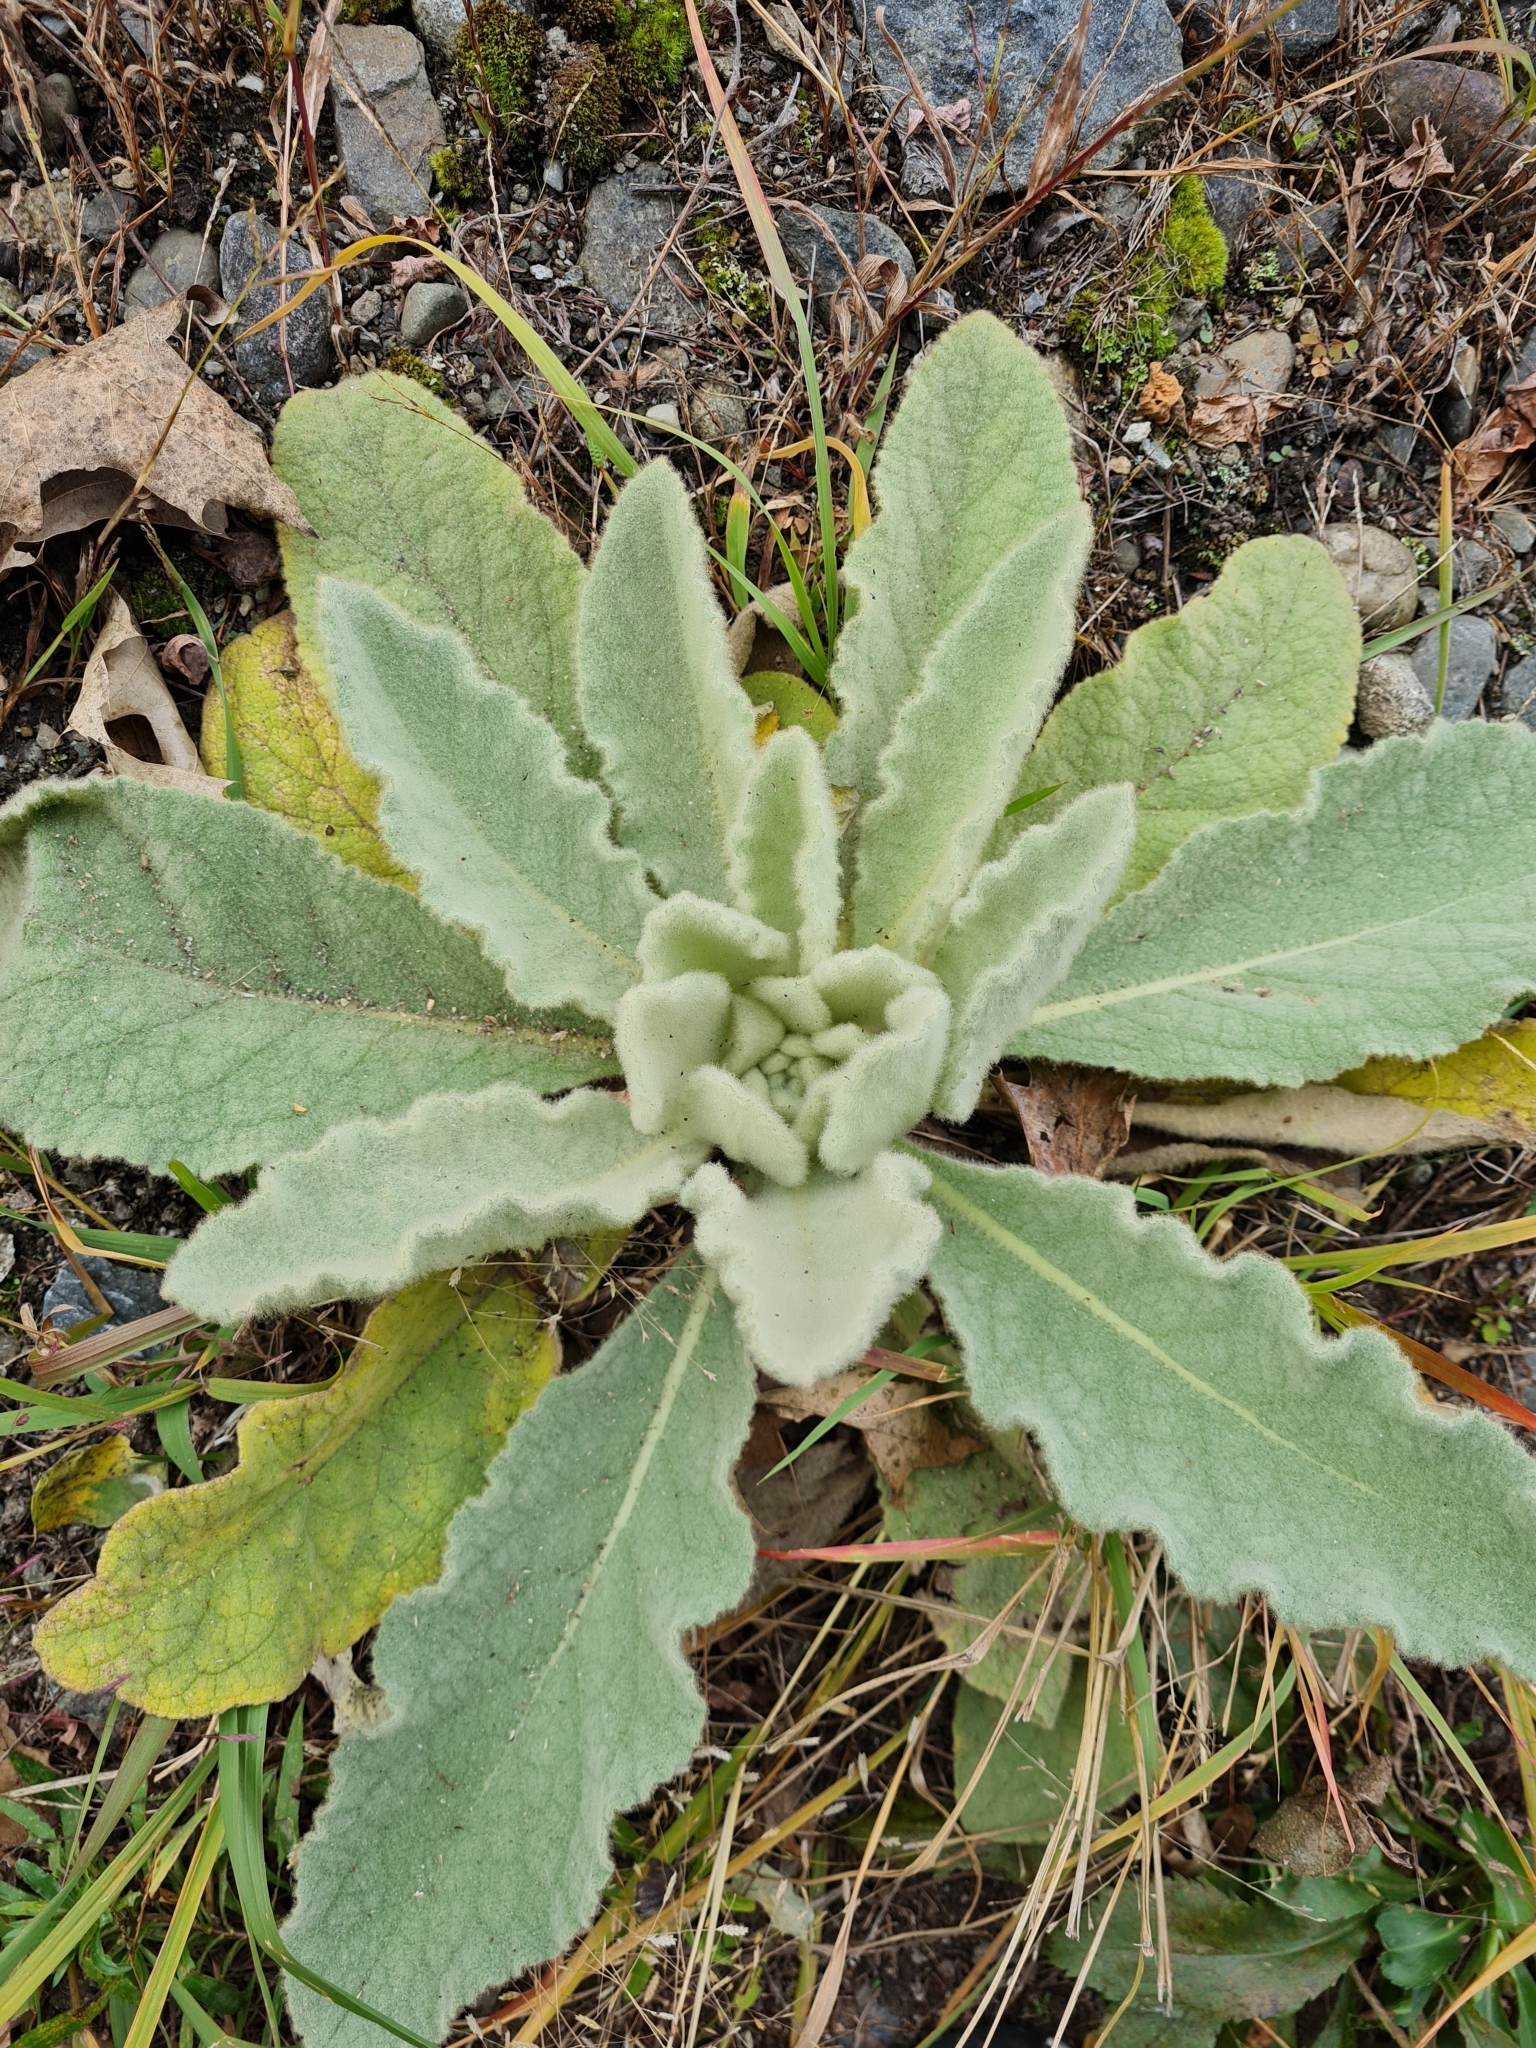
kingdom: Plantae
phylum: Tracheophyta
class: Magnoliopsida
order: Lamiales
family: Scrophulariaceae
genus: Verbascum
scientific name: Verbascum thapsus
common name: Common mullein
